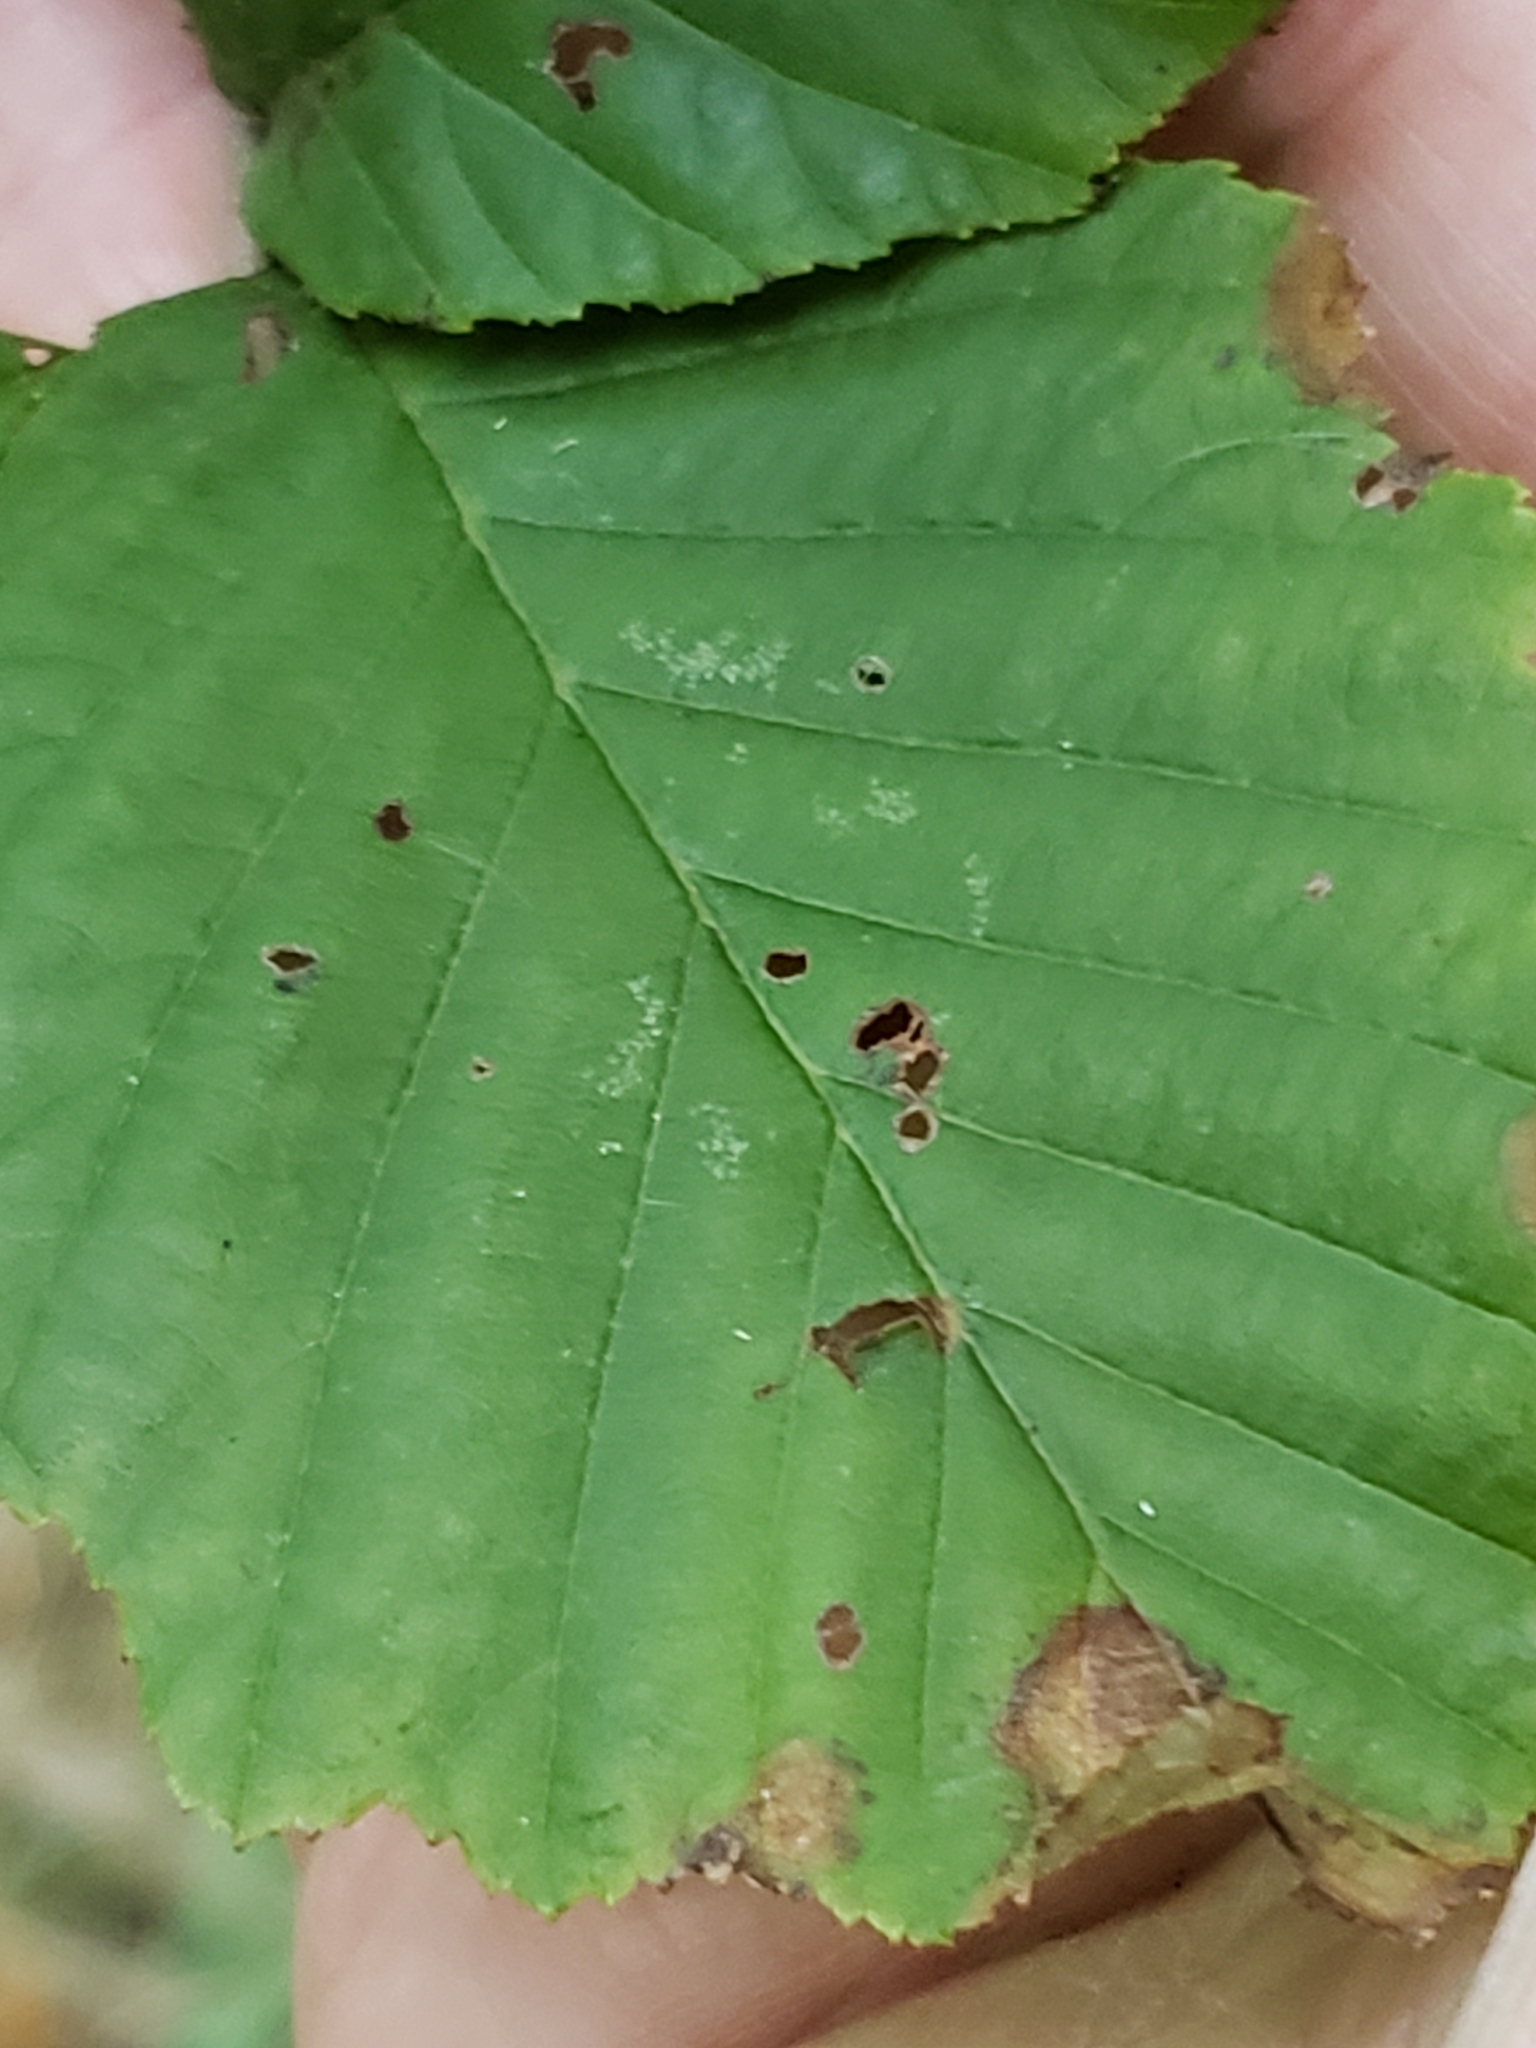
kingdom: Animalia
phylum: Arthropoda
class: Insecta
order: Hemiptera
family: Aphididae
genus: Prociphilus
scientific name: Prociphilus tessellatus
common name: Woolly alder aphid
